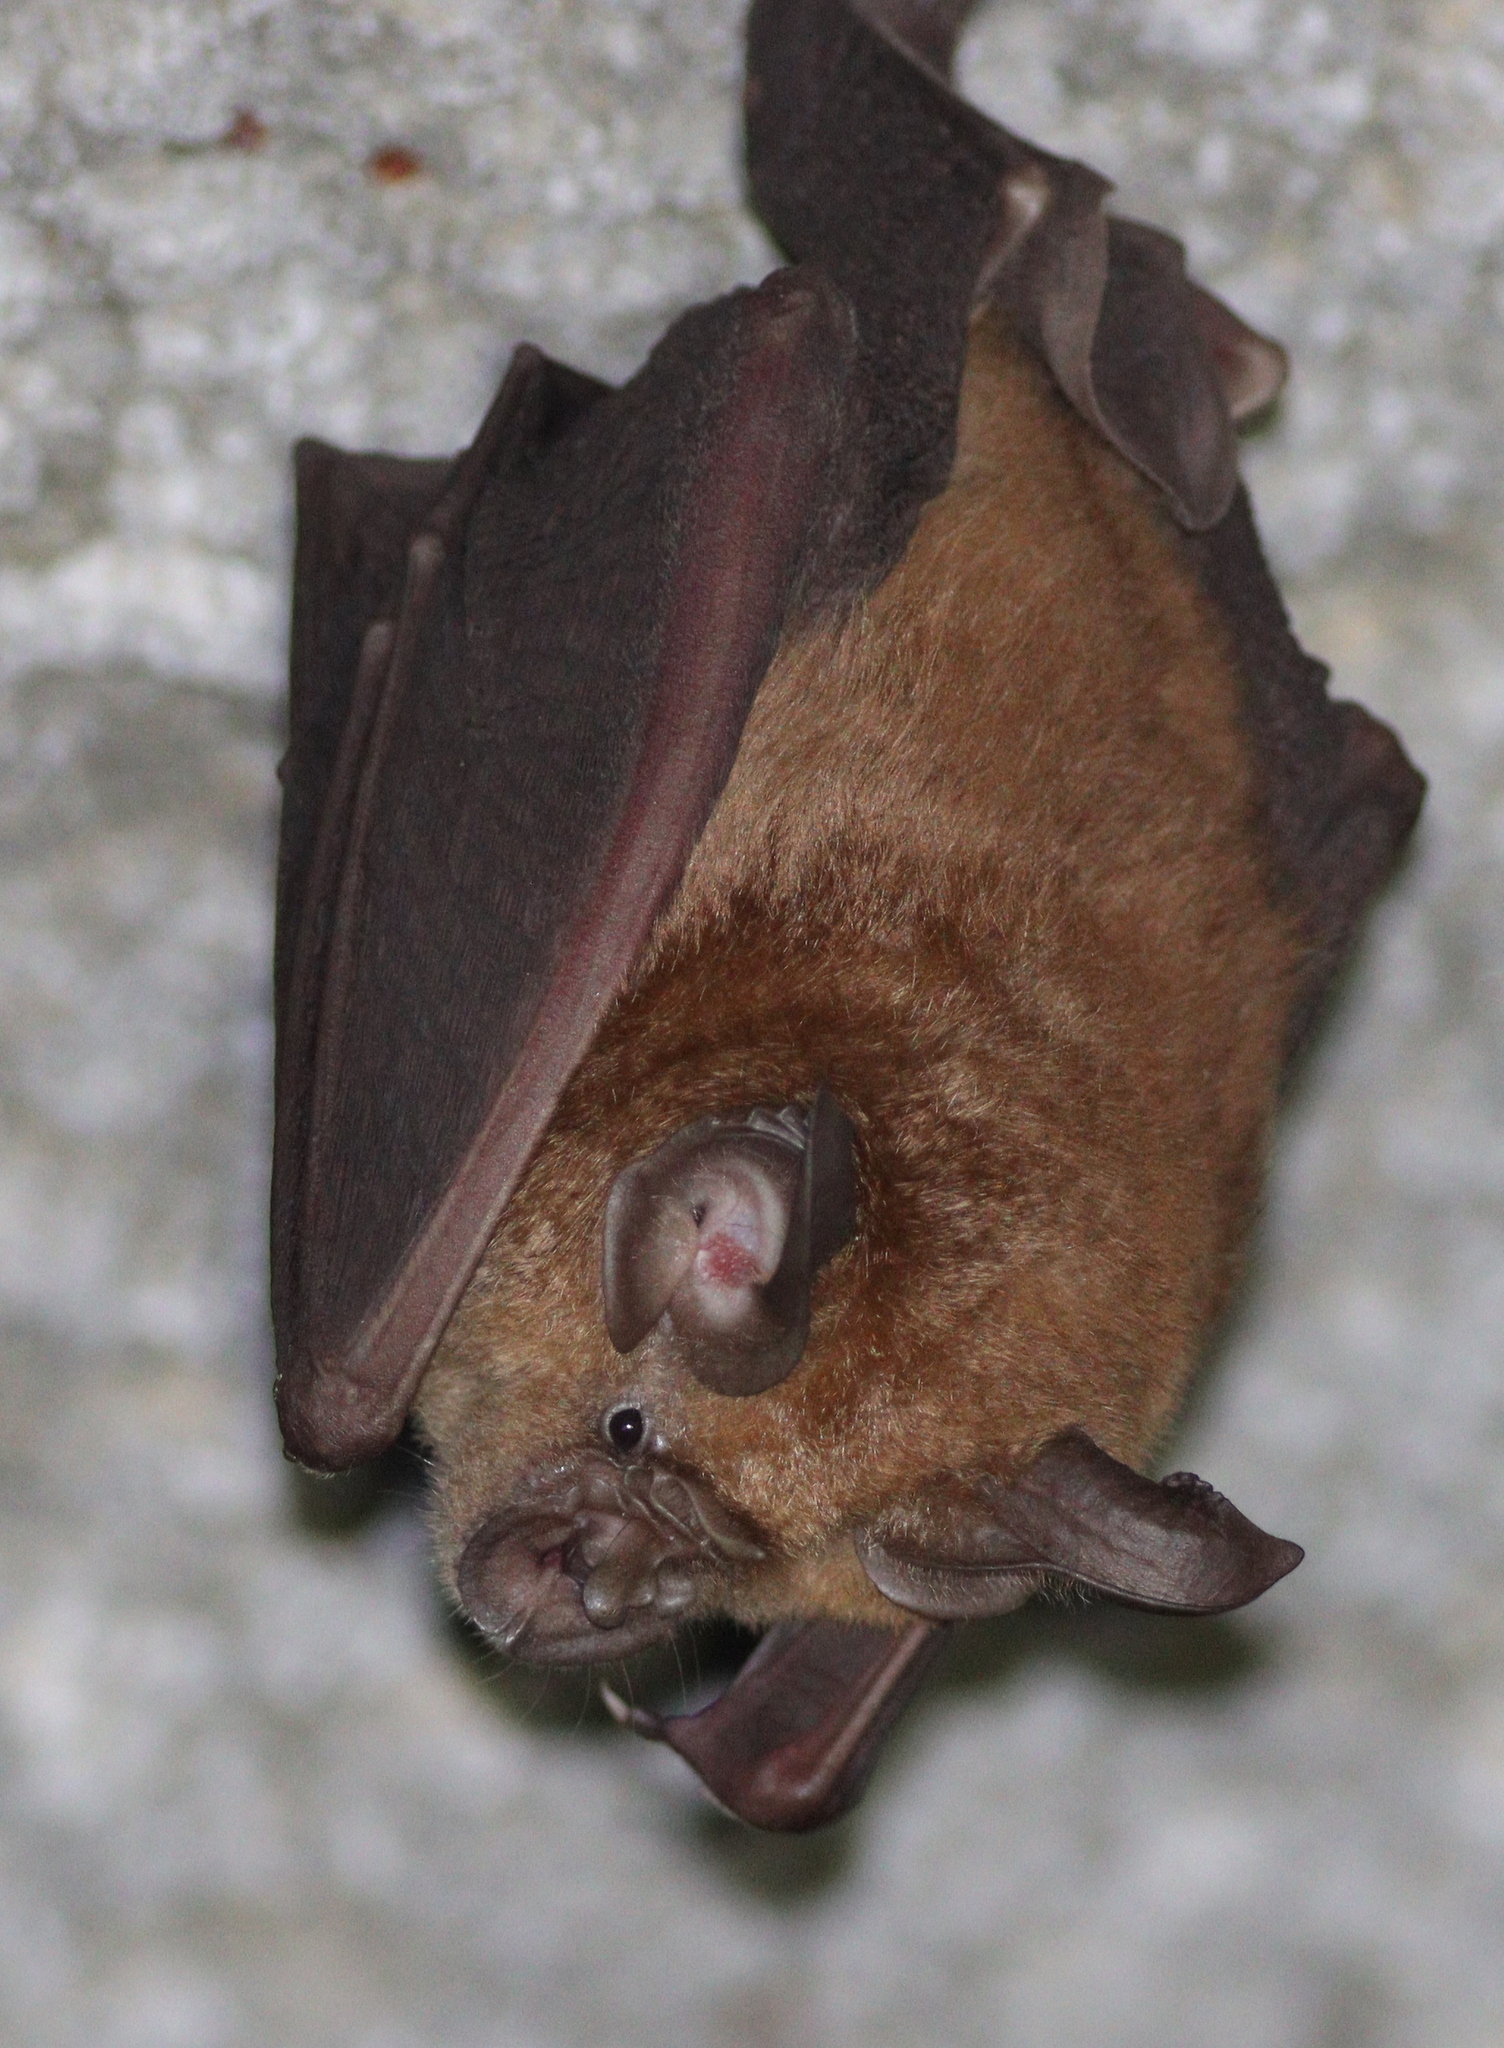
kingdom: Animalia
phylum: Chordata
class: Mammalia
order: Chiroptera
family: Rhinolophidae
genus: Rhinolophus
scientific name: Rhinolophus nippon
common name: Greater japanese horseshoe bat
